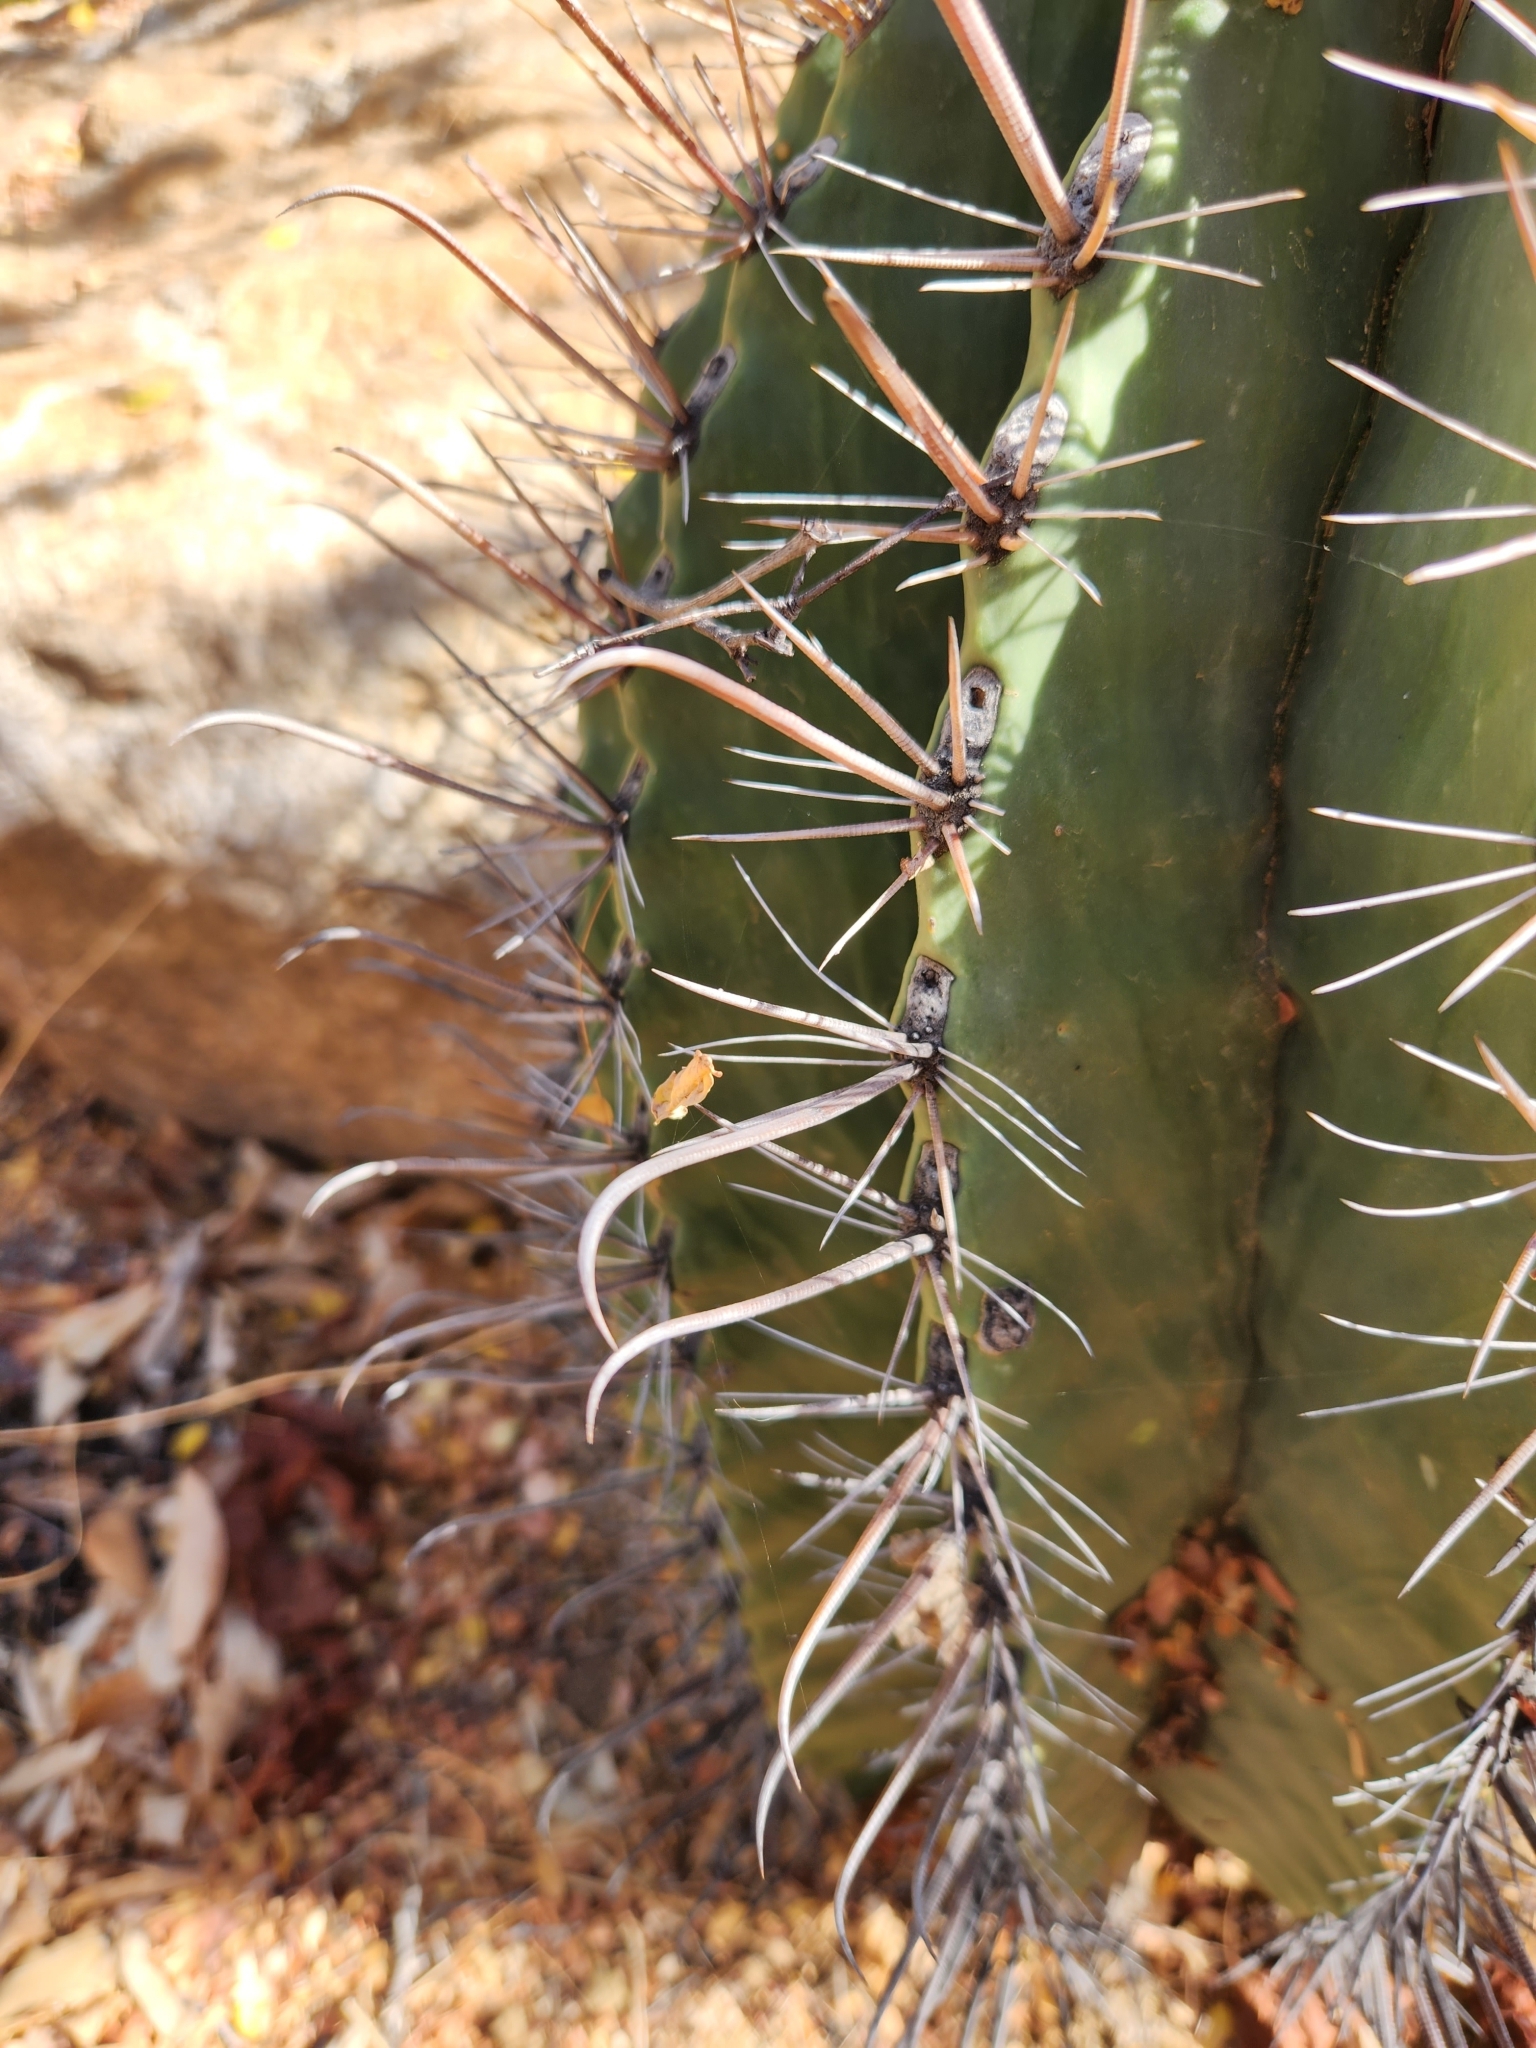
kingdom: Plantae
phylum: Tracheophyta
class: Magnoliopsida
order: Caryophyllales
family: Cactaceae
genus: Ferocactus
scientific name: Ferocactus townsendianus
